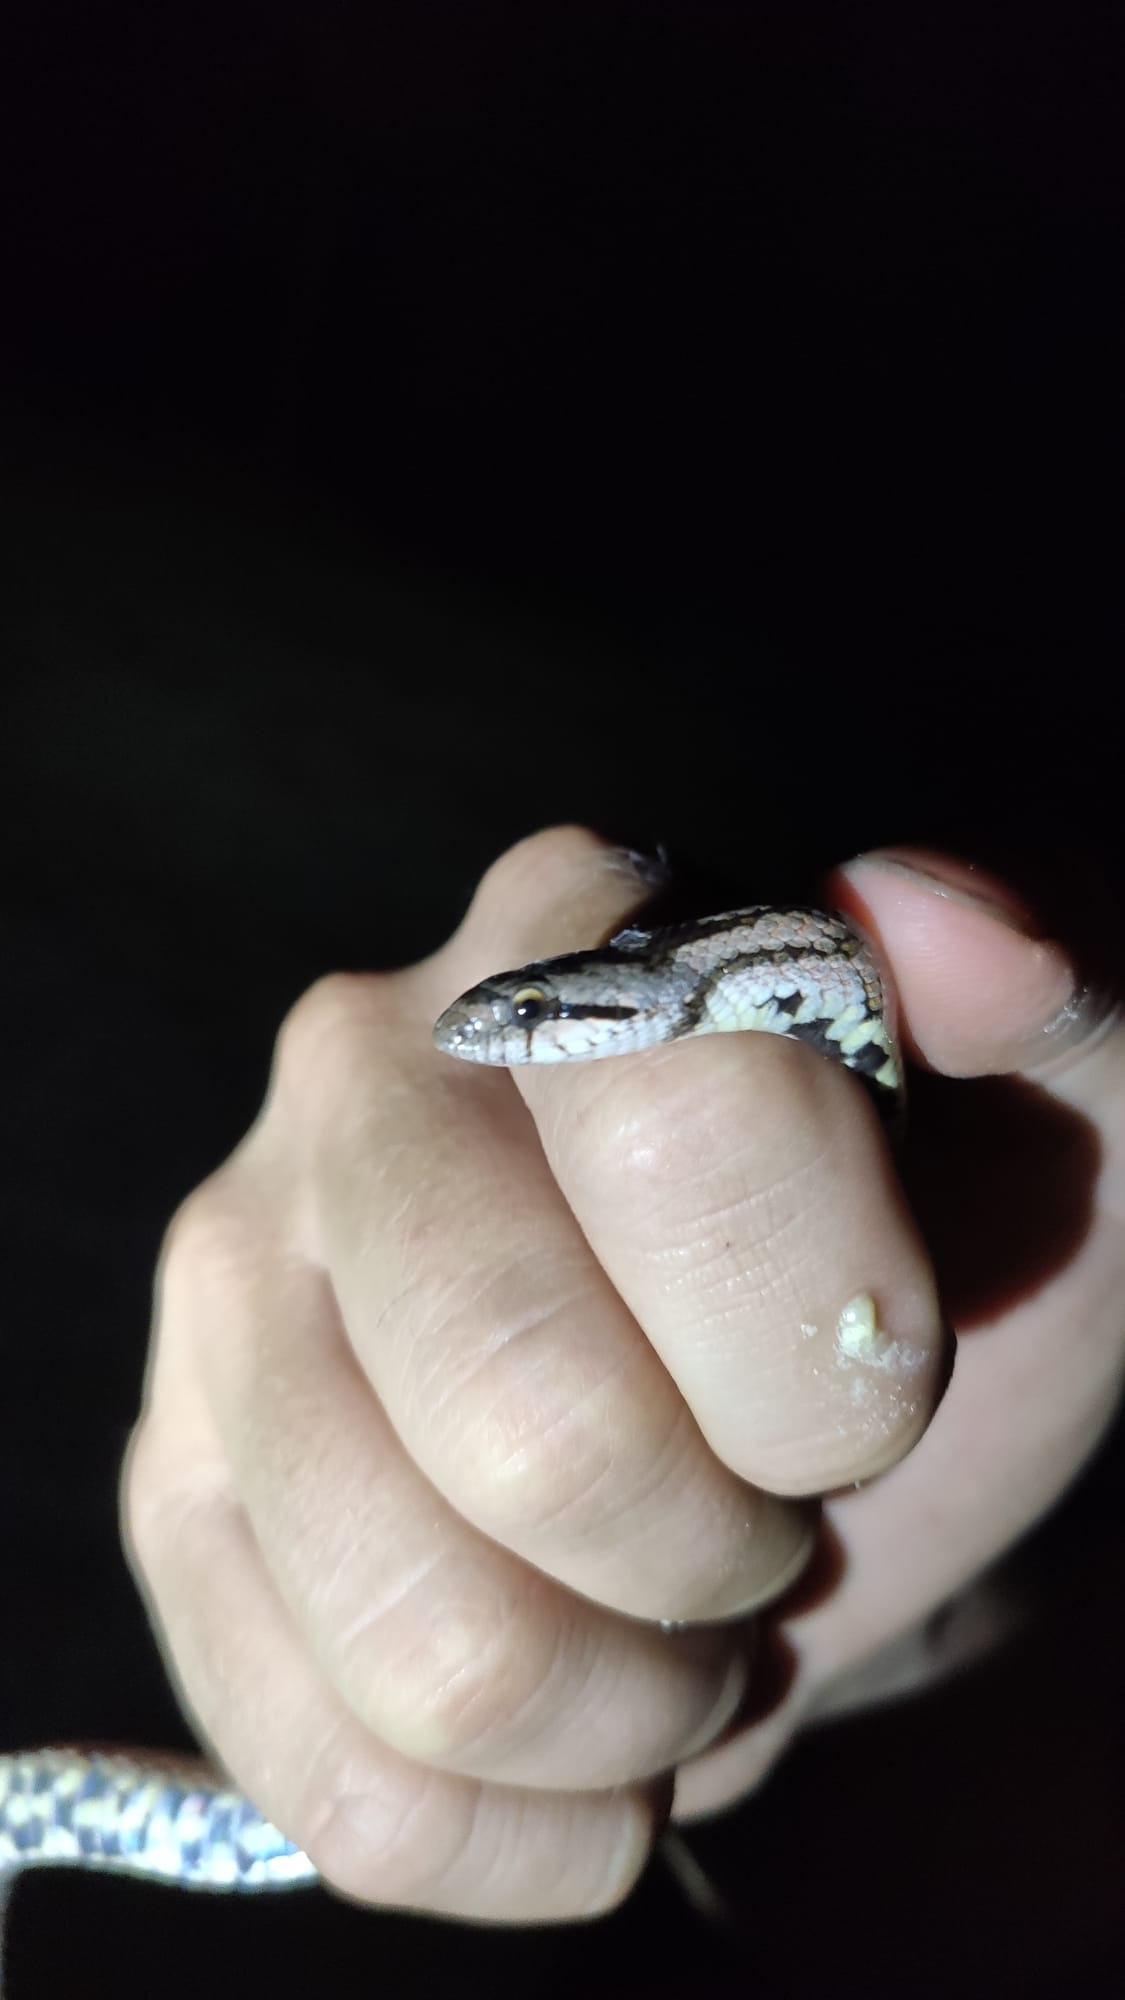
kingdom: Animalia
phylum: Chordata
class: Squamata
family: Colubridae
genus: Coronella
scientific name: Coronella girondica
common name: Southern smooth snake
